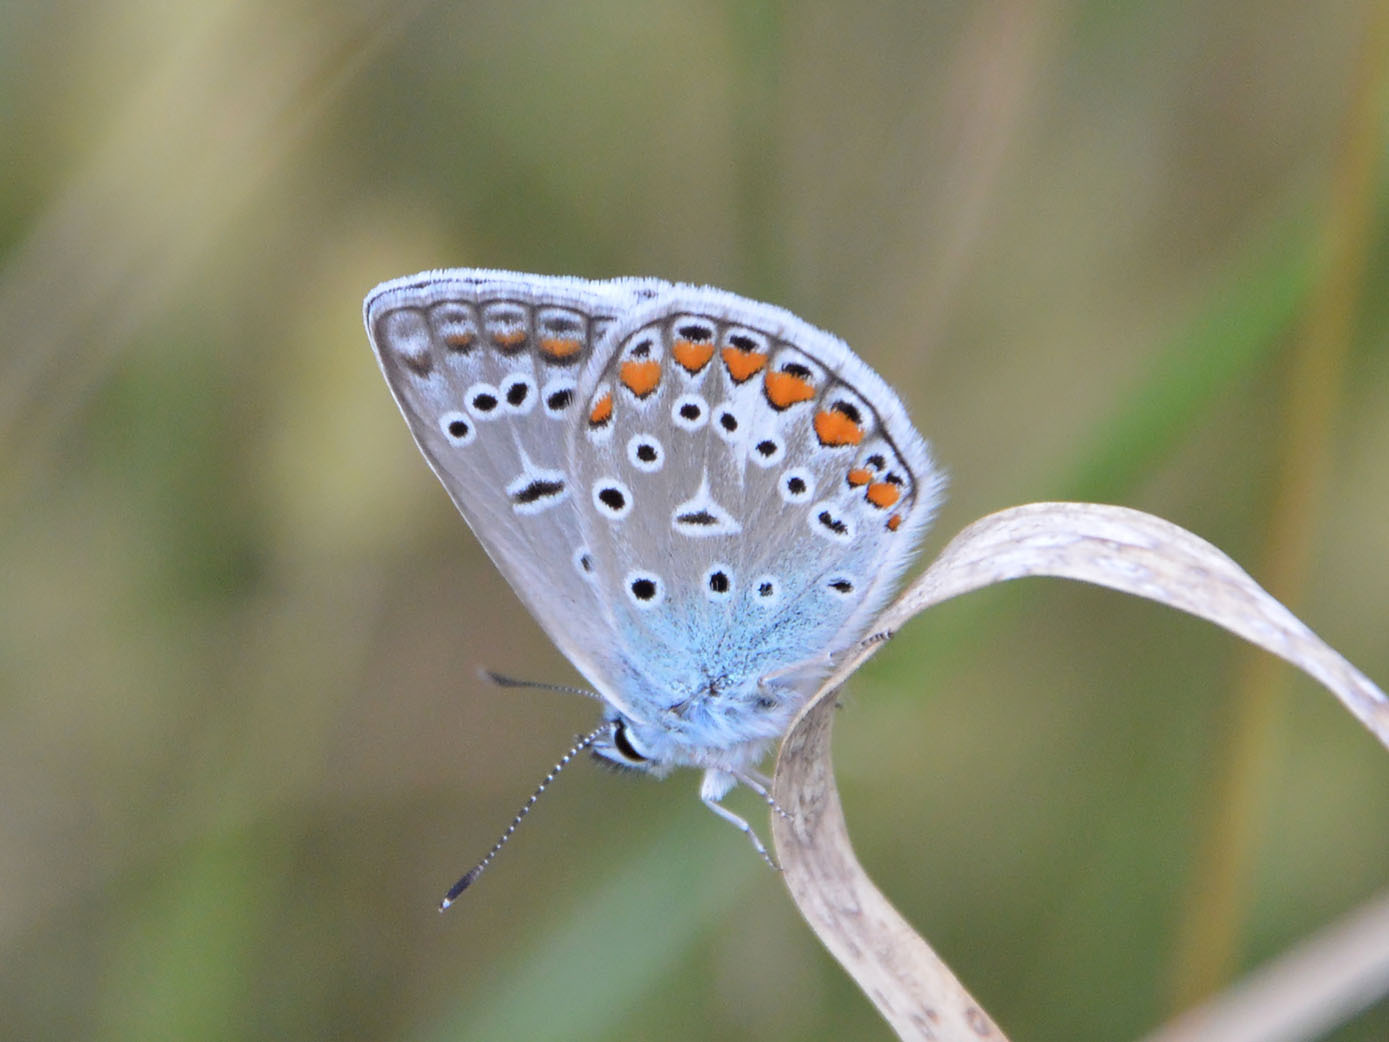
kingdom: Animalia
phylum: Arthropoda
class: Insecta
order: Lepidoptera
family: Lycaenidae
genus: Polyommatus
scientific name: Polyommatus icarus
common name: Common blue
